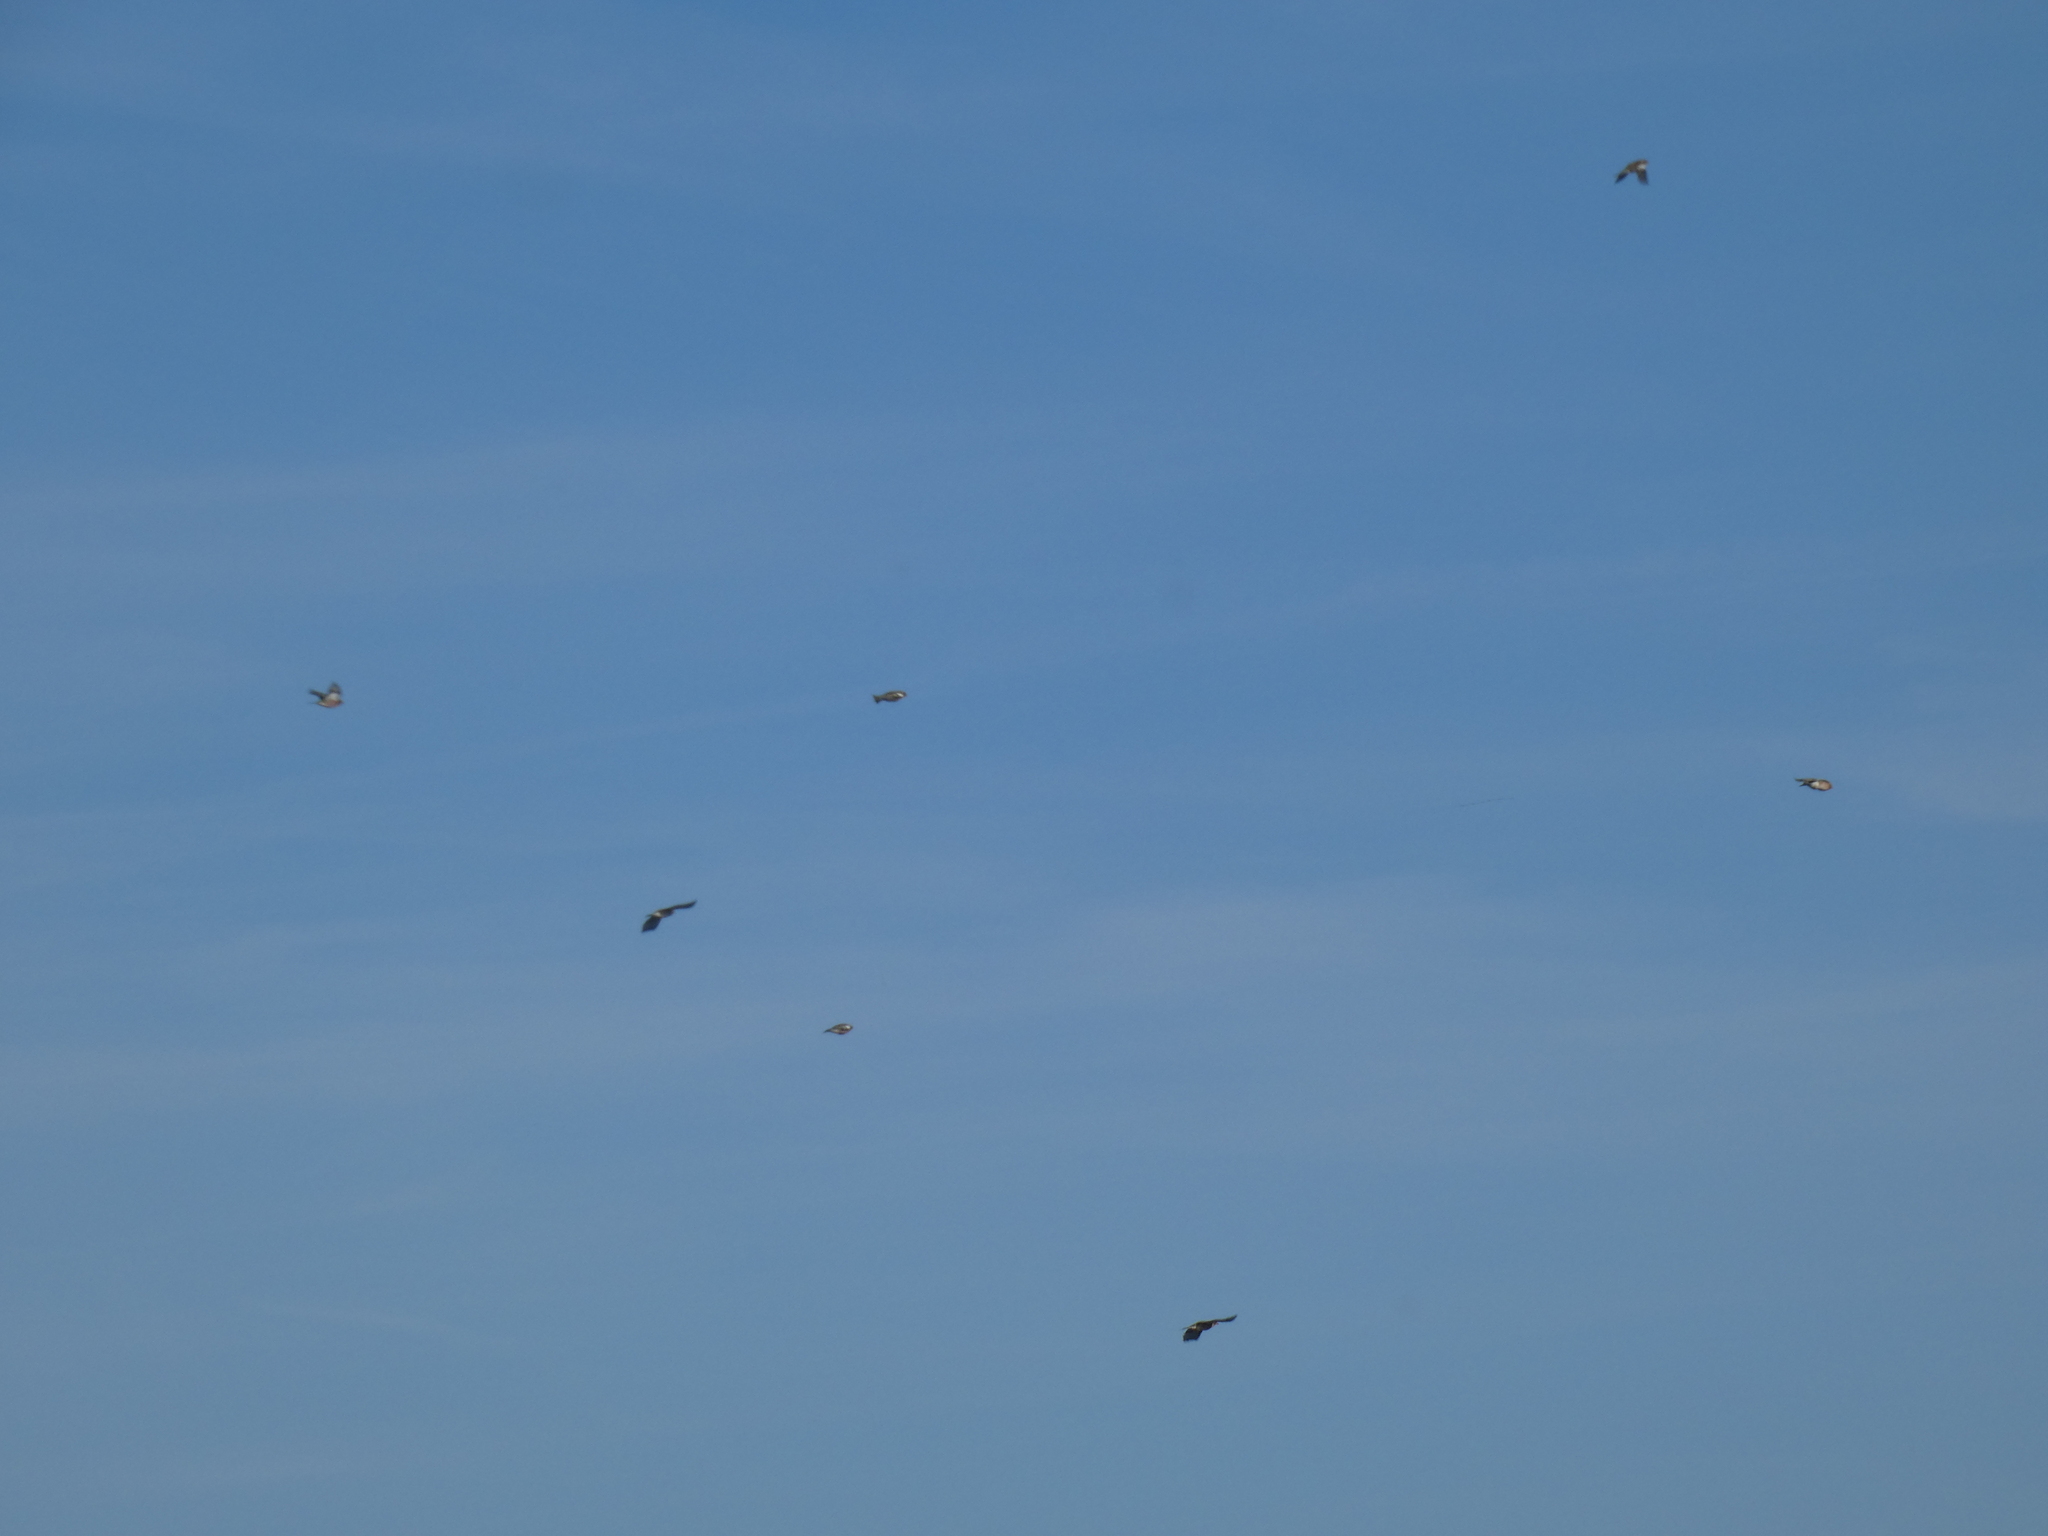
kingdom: Animalia
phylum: Chordata
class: Aves
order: Passeriformes
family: Turdidae
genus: Turdus
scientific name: Turdus
